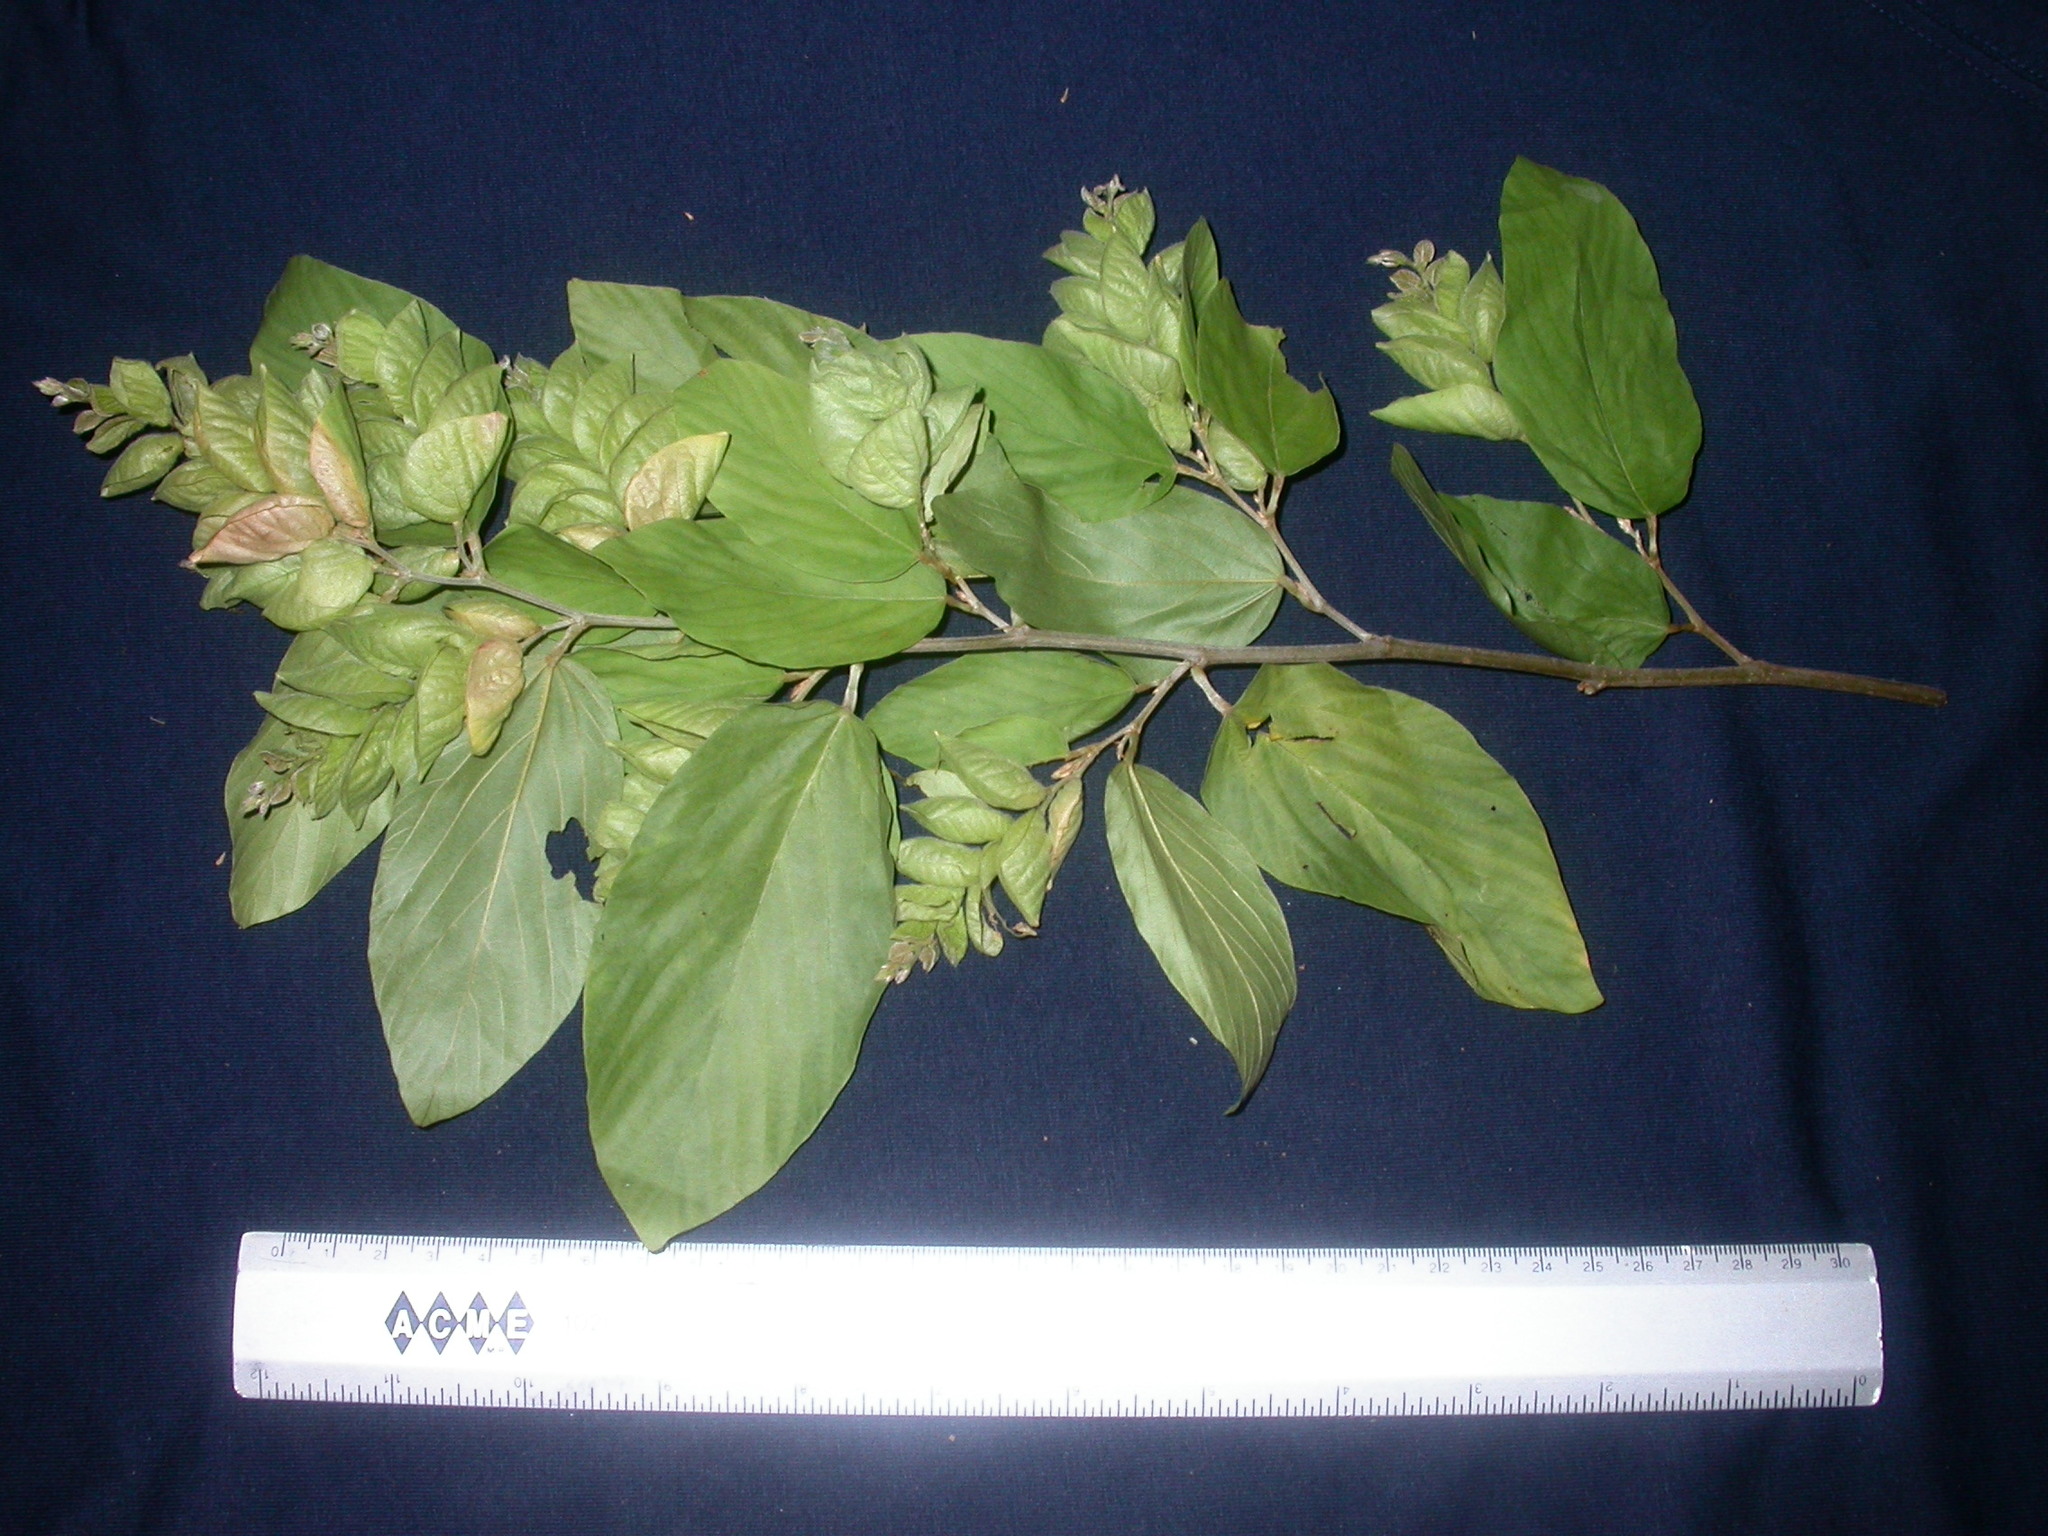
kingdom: Plantae
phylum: Tracheophyta
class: Magnoliopsida
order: Fabales
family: Fabaceae
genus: Flemingia
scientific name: Flemingia strobilifera
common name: Wild hops
